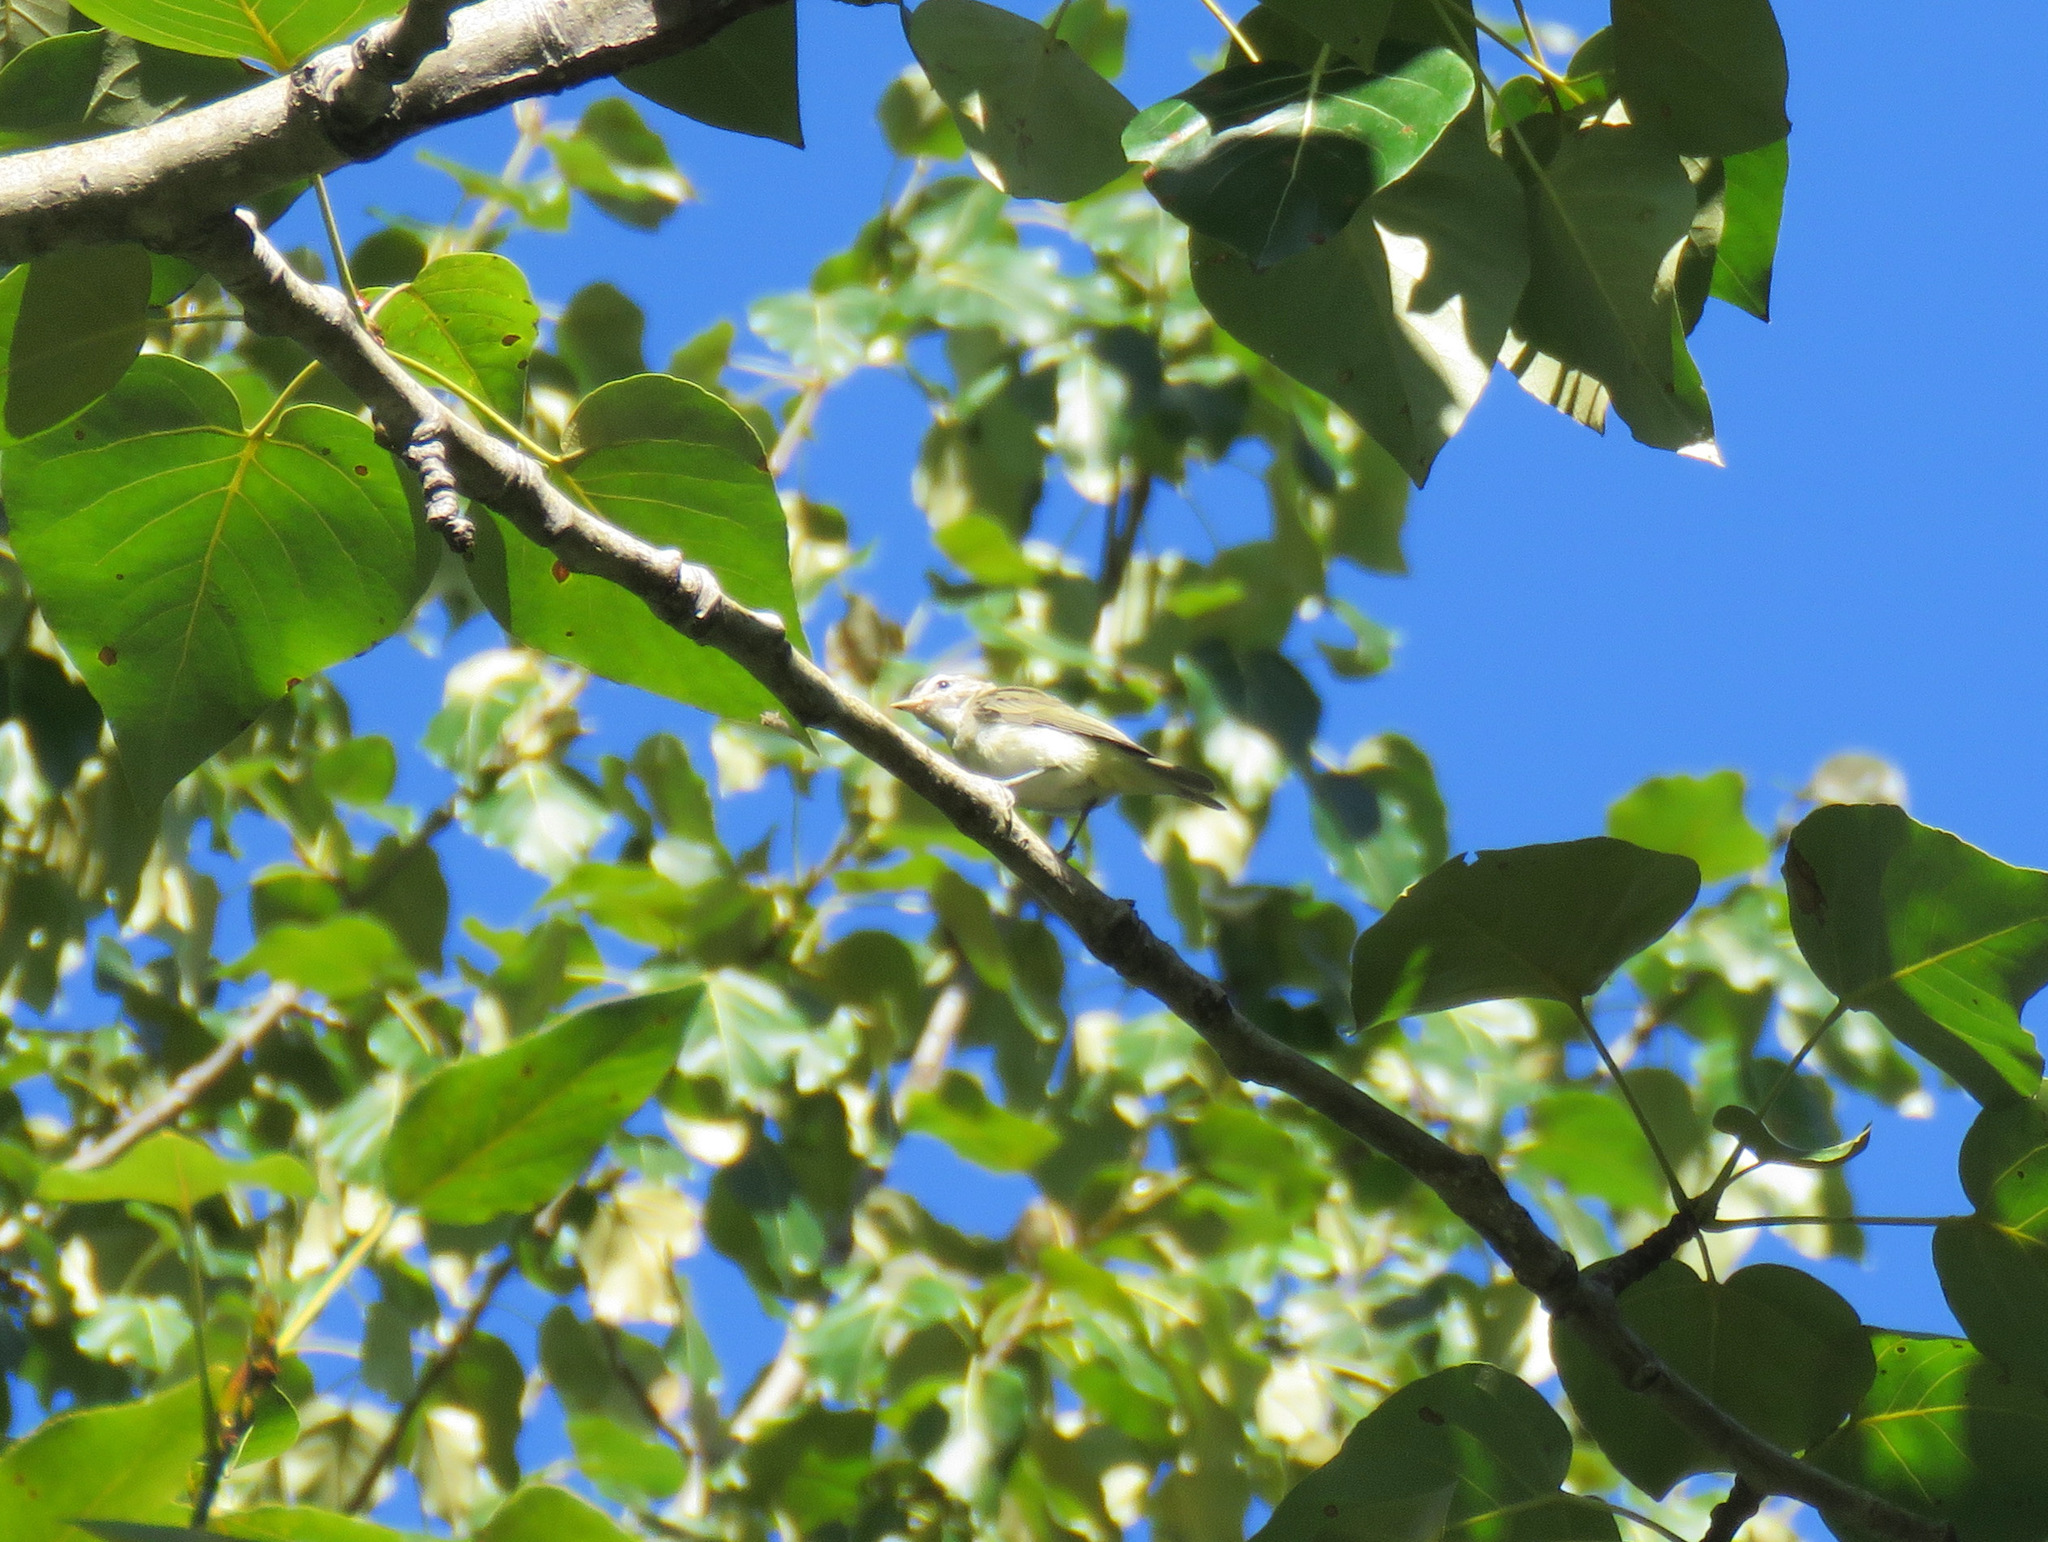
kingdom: Animalia
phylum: Chordata
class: Aves
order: Passeriformes
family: Vireonidae
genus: Vireo
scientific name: Vireo olivaceus
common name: Red-eyed vireo
